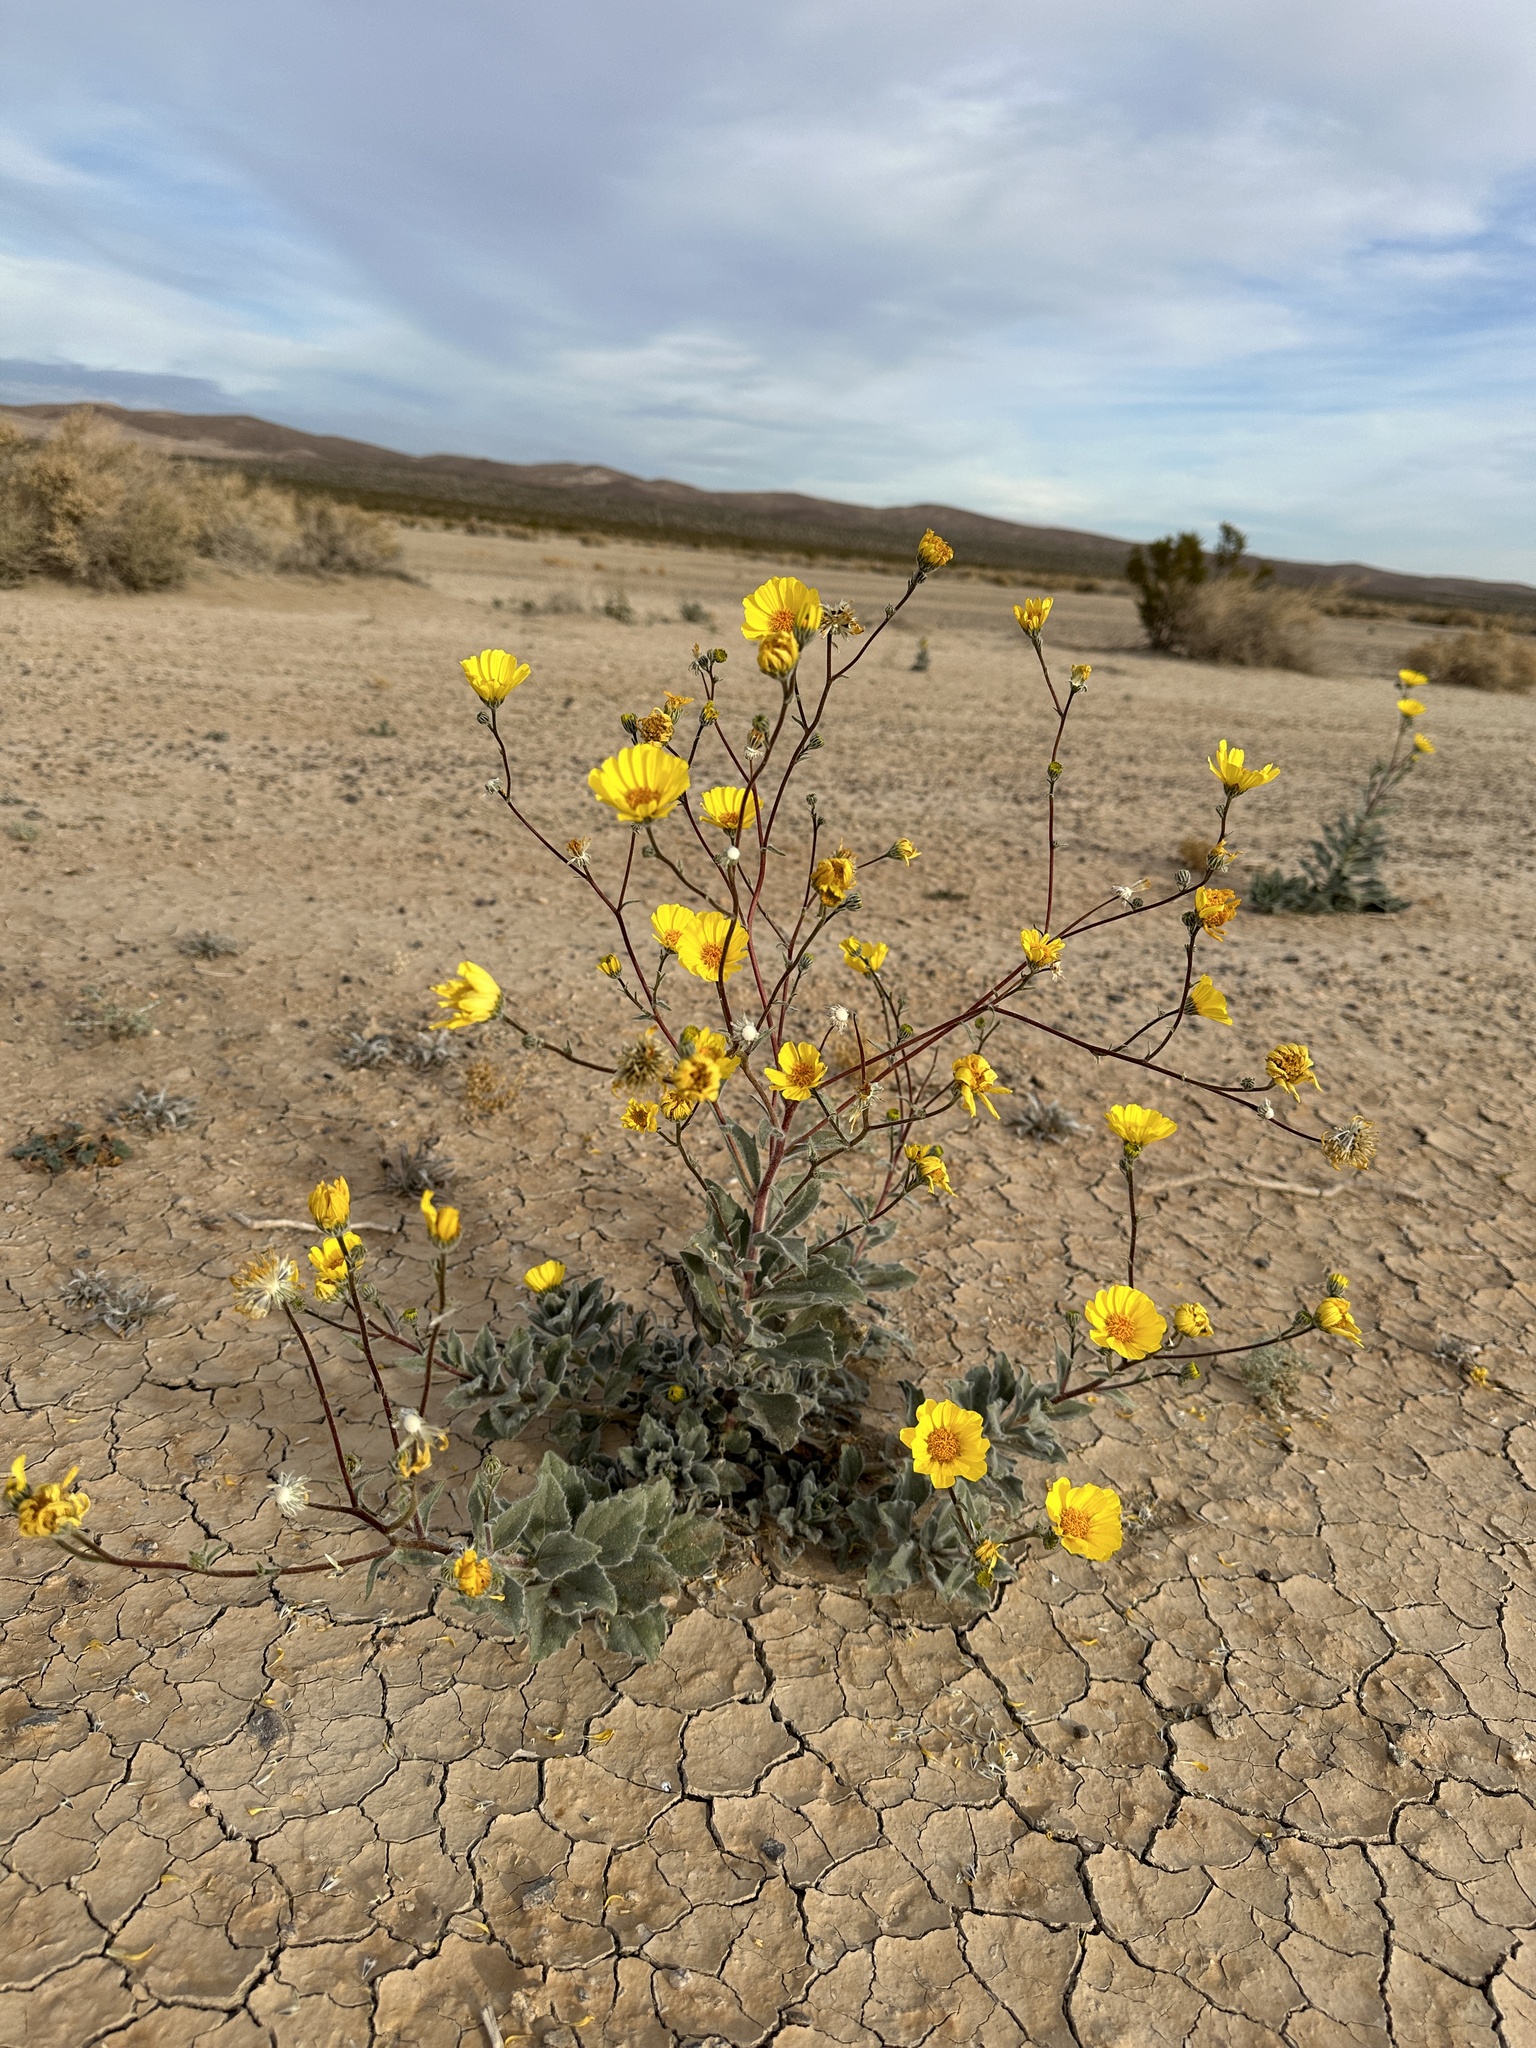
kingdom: Plantae
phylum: Tracheophyta
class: Magnoliopsida
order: Asterales
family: Asteraceae
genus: Geraea
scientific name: Geraea canescens
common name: Desert-gold
